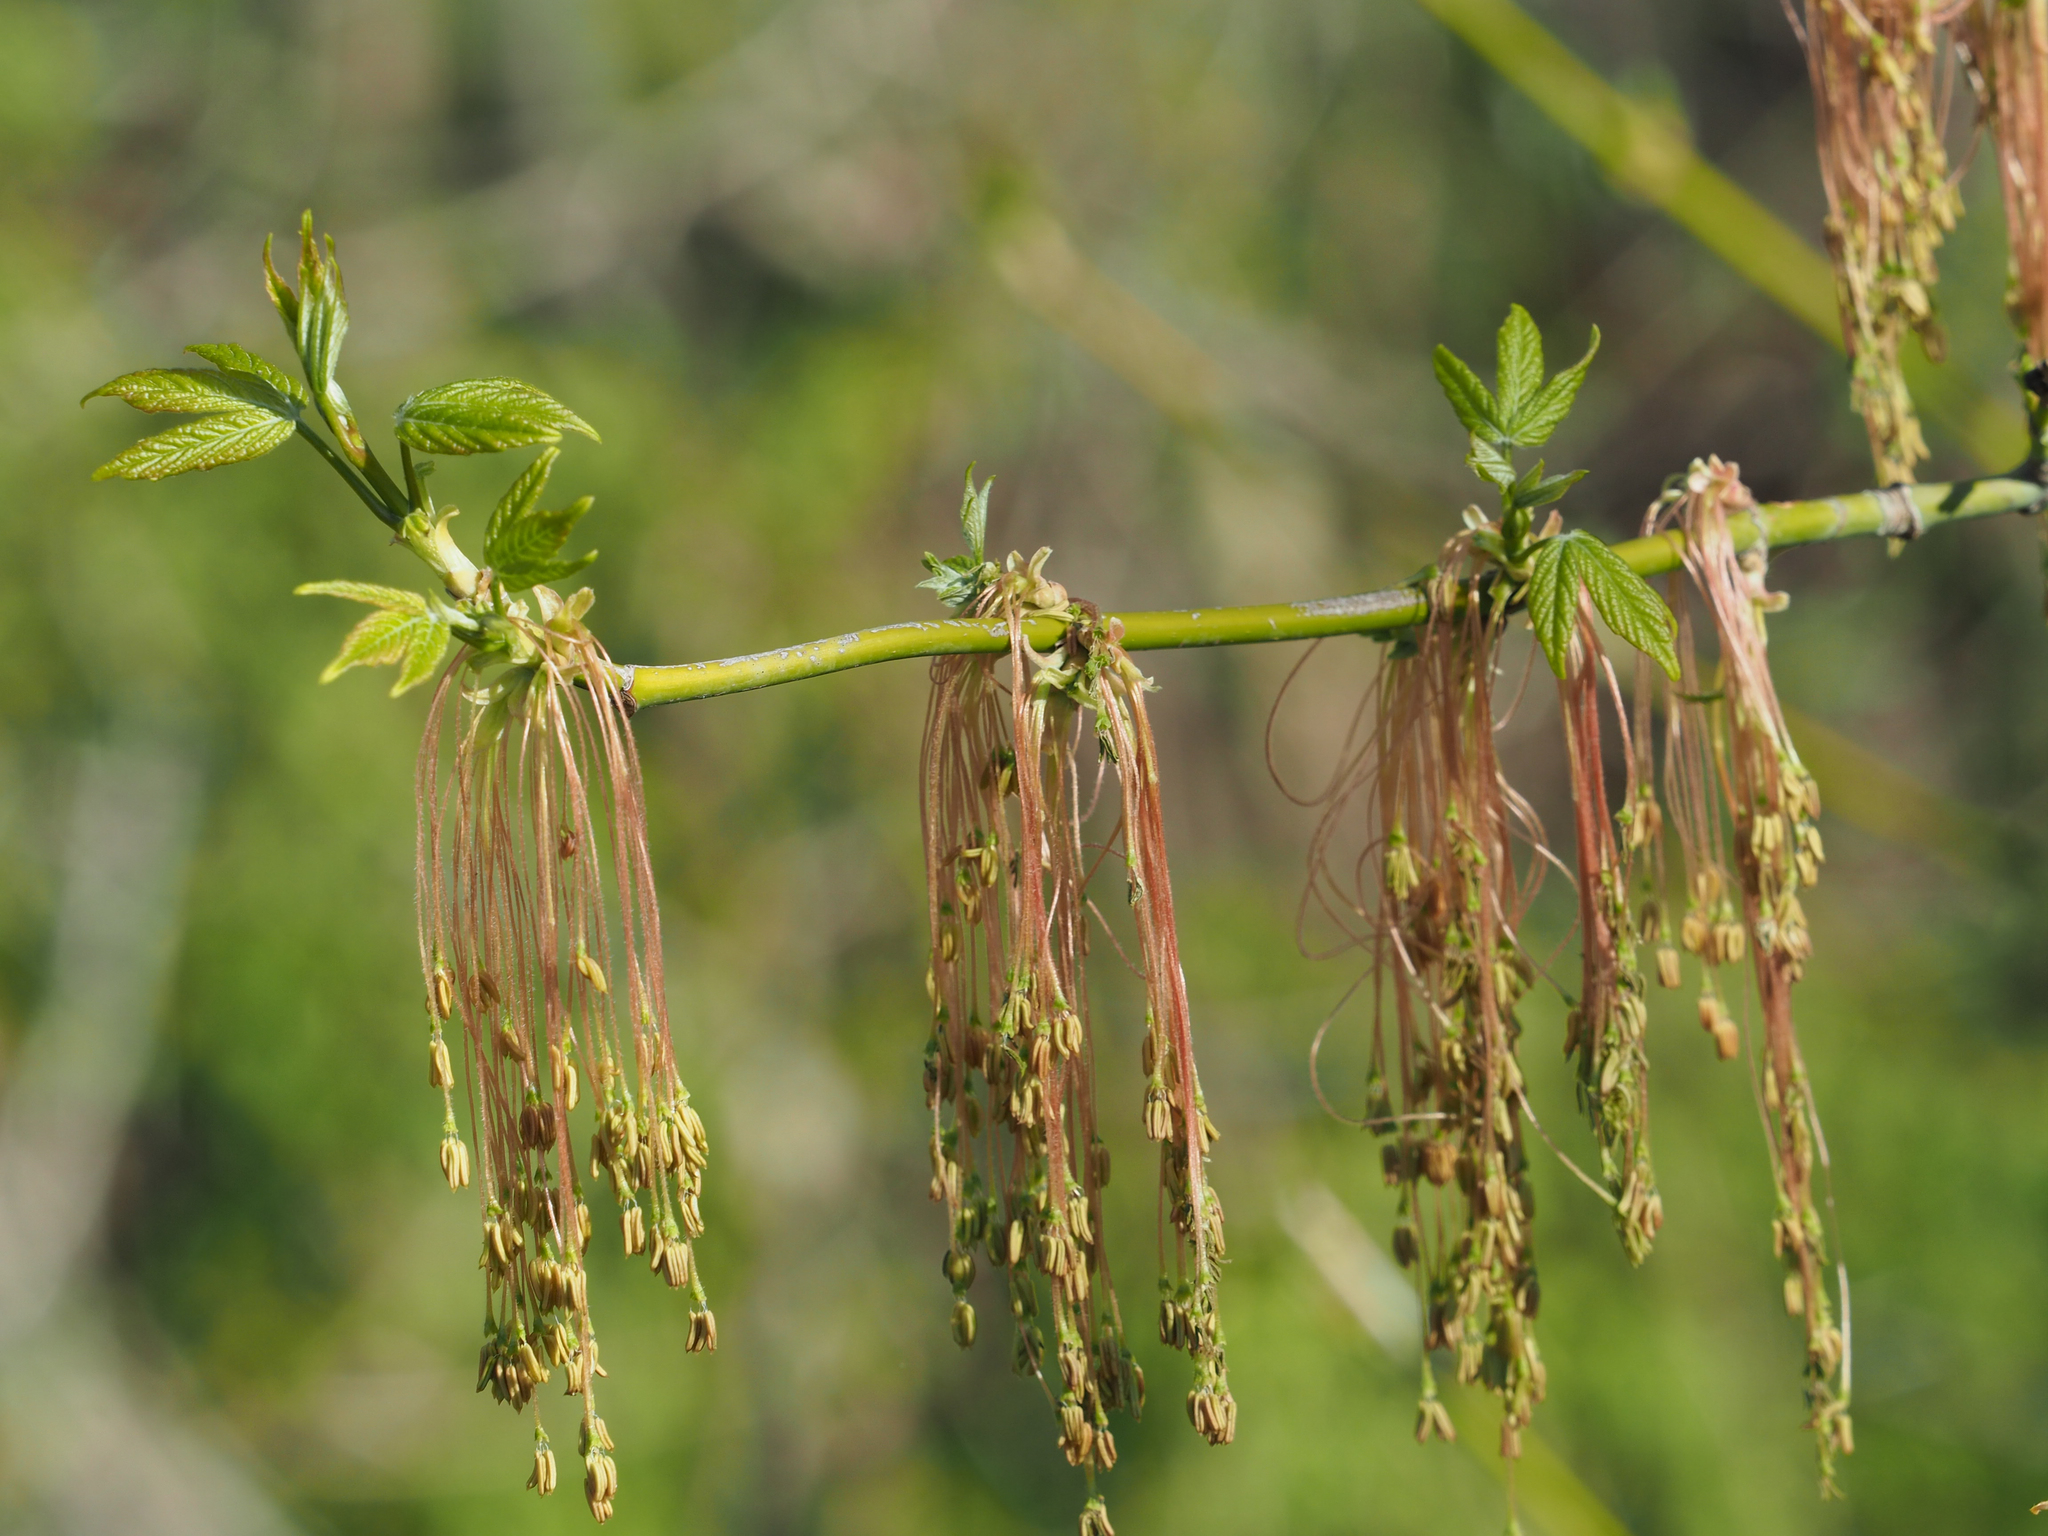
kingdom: Plantae
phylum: Tracheophyta
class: Magnoliopsida
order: Sapindales
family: Sapindaceae
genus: Acer
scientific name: Acer negundo
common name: Ashleaf maple
